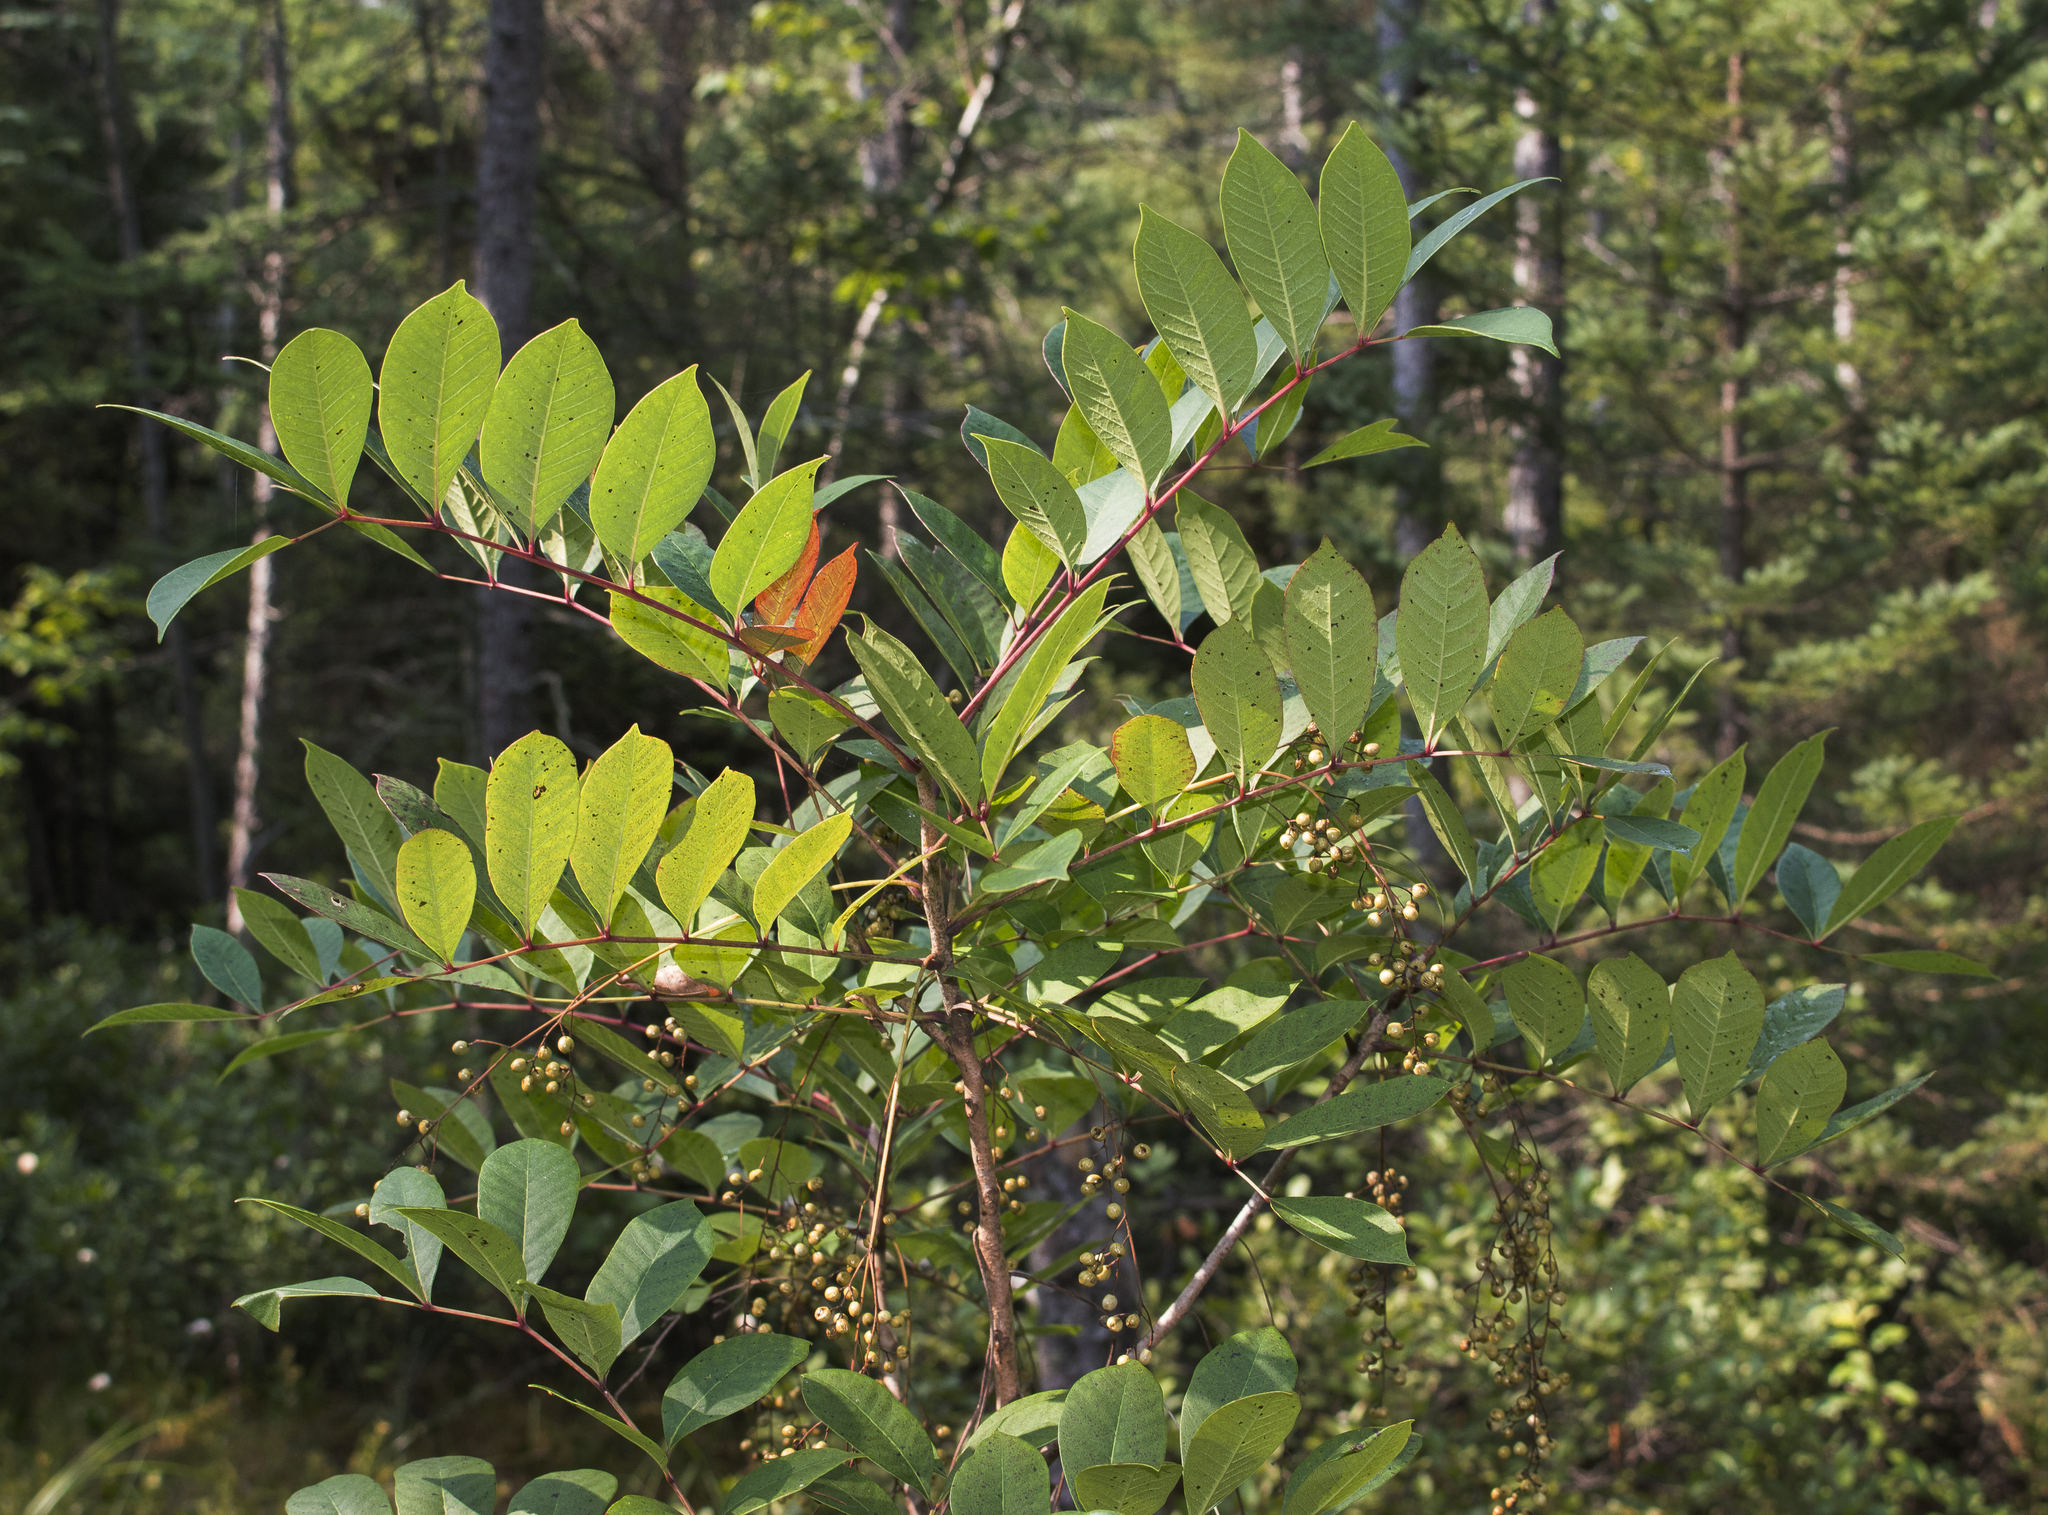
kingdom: Plantae
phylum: Tracheophyta
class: Magnoliopsida
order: Sapindales
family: Anacardiaceae
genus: Toxicodendron
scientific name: Toxicodendron vernix
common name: Poison sumac
